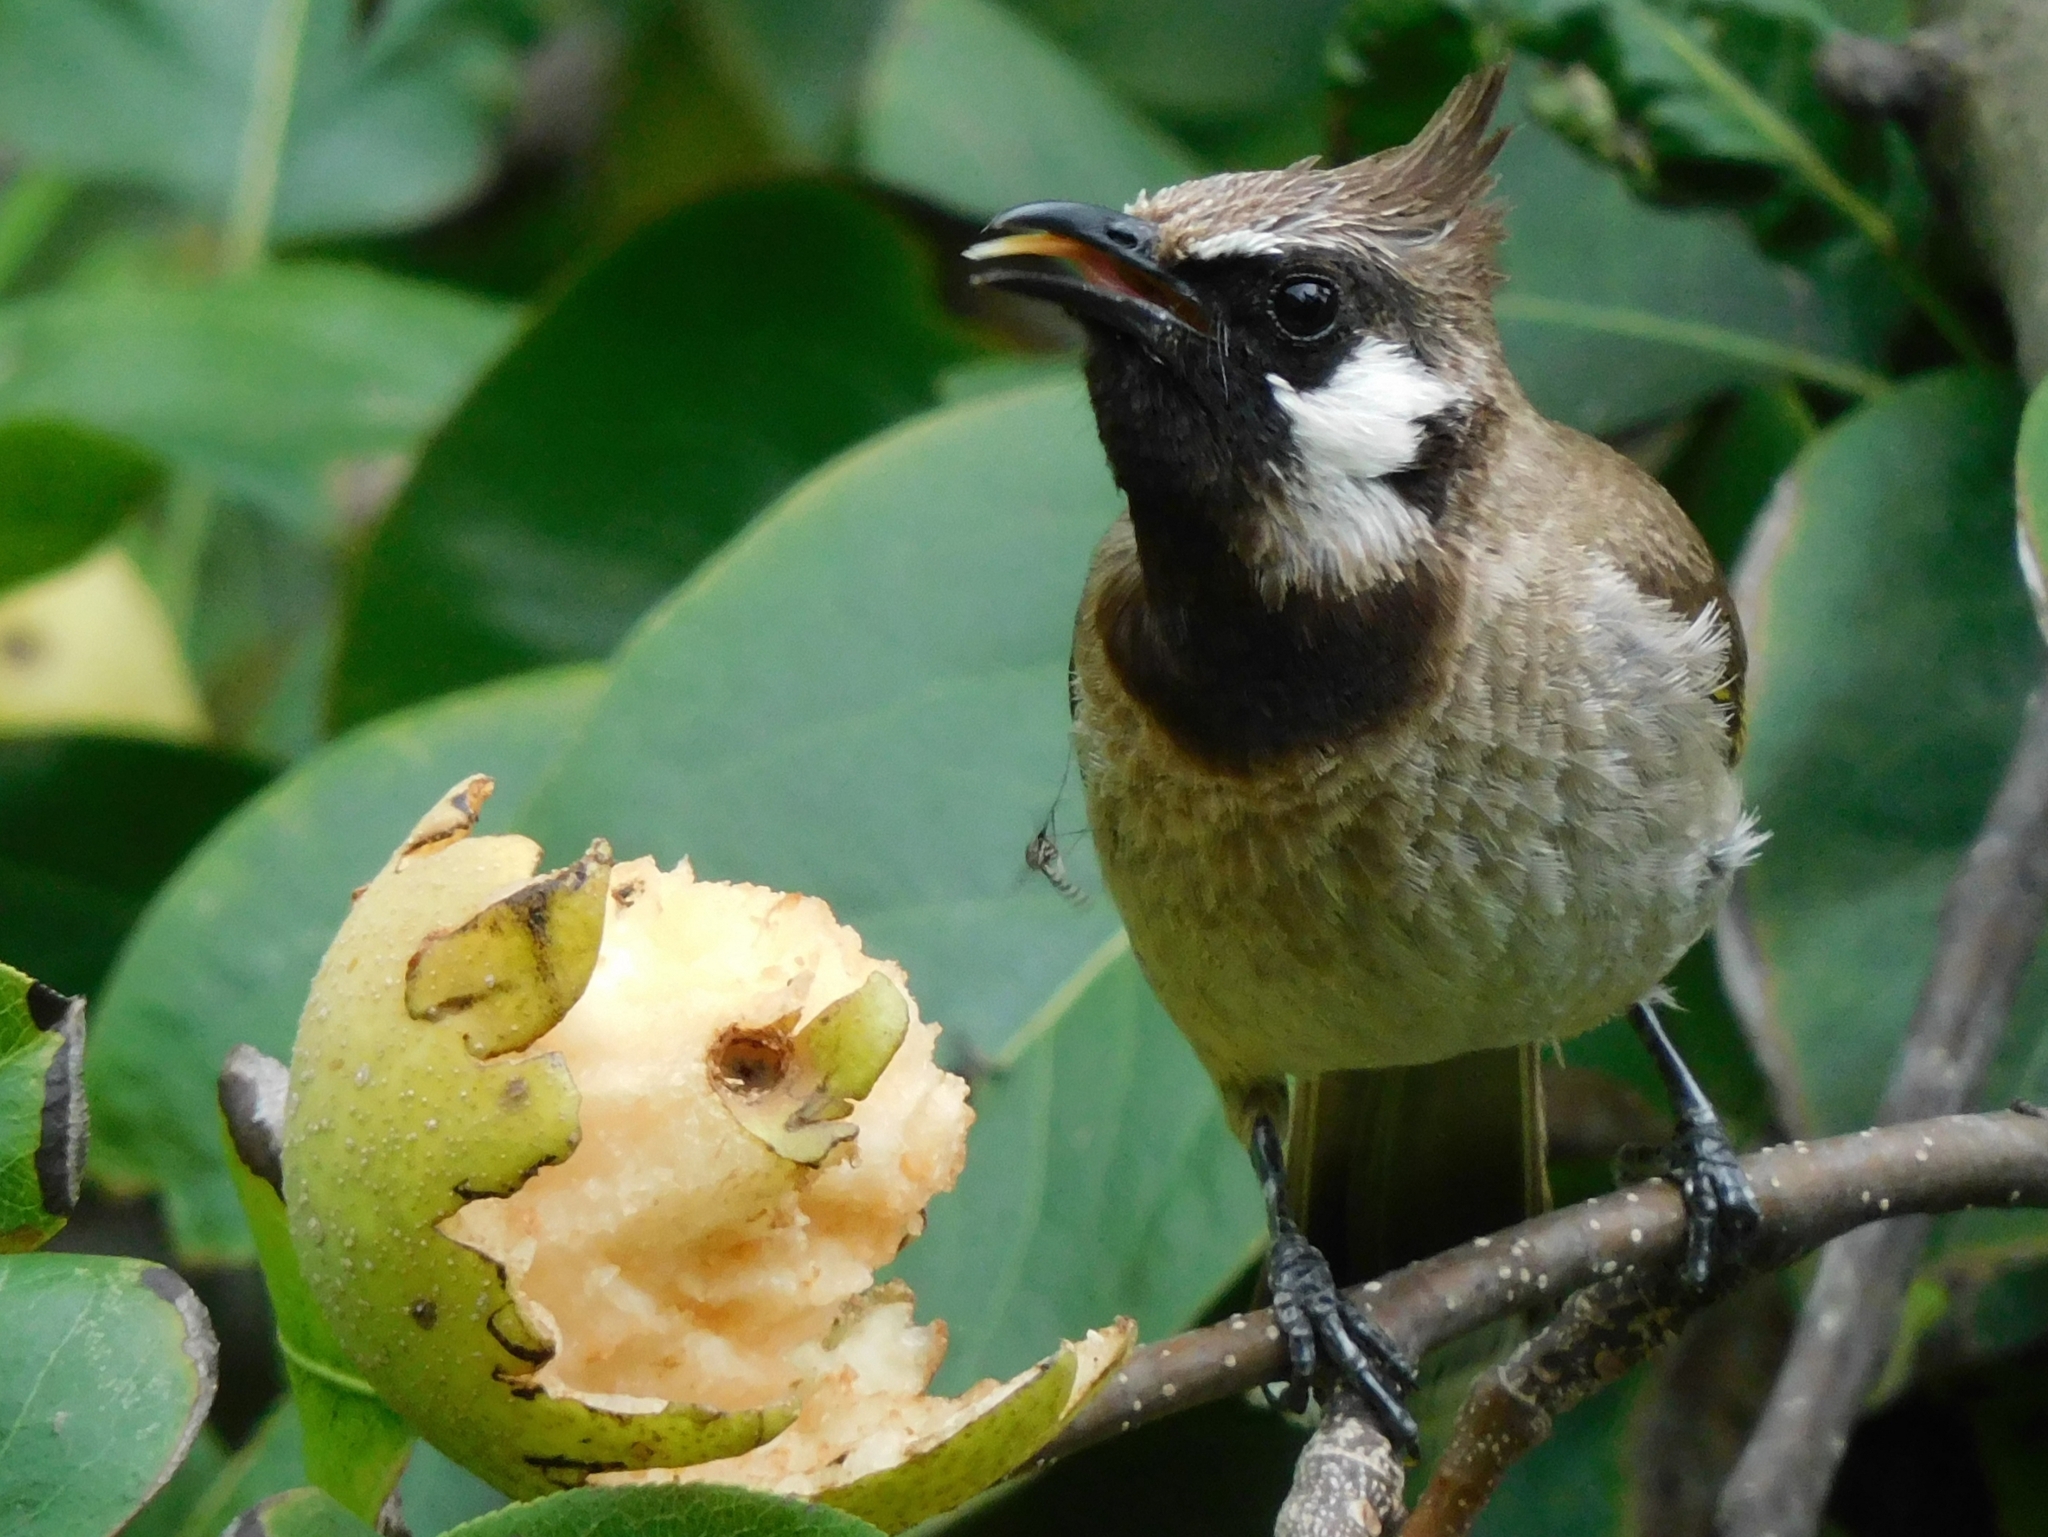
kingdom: Animalia
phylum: Chordata
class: Aves
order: Passeriformes
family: Pycnonotidae
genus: Pycnonotus
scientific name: Pycnonotus leucogenys
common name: Himalayan bulbul
